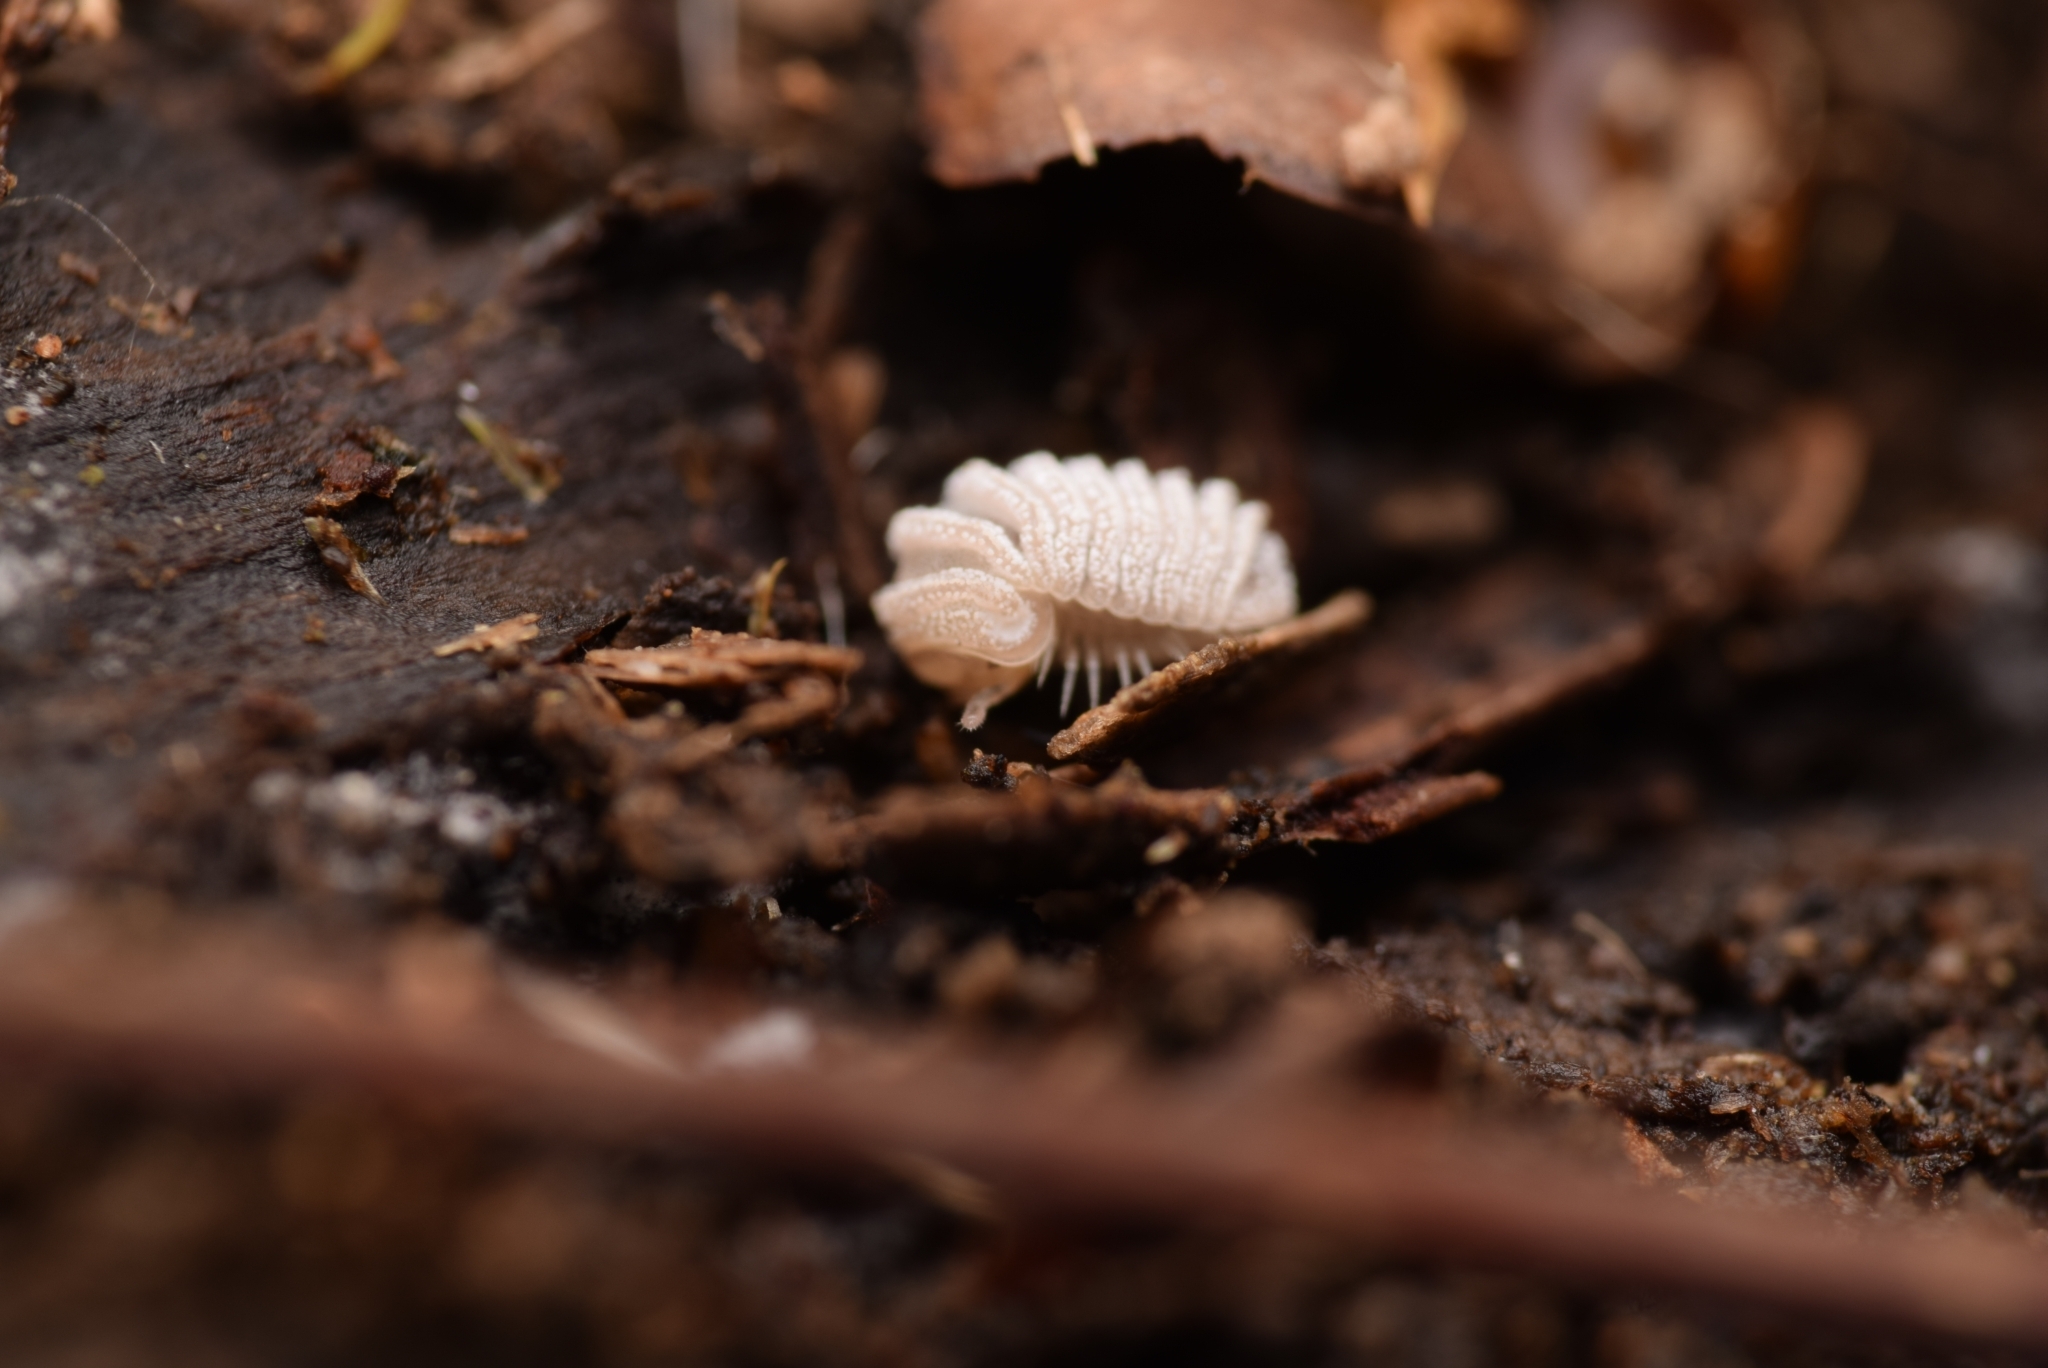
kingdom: Animalia
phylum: Arthropoda
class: Diplopoda
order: Glomerida
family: Glomeridae
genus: Trachysphaera
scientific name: Trachysphaera lobata
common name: Sand pill-millipede
